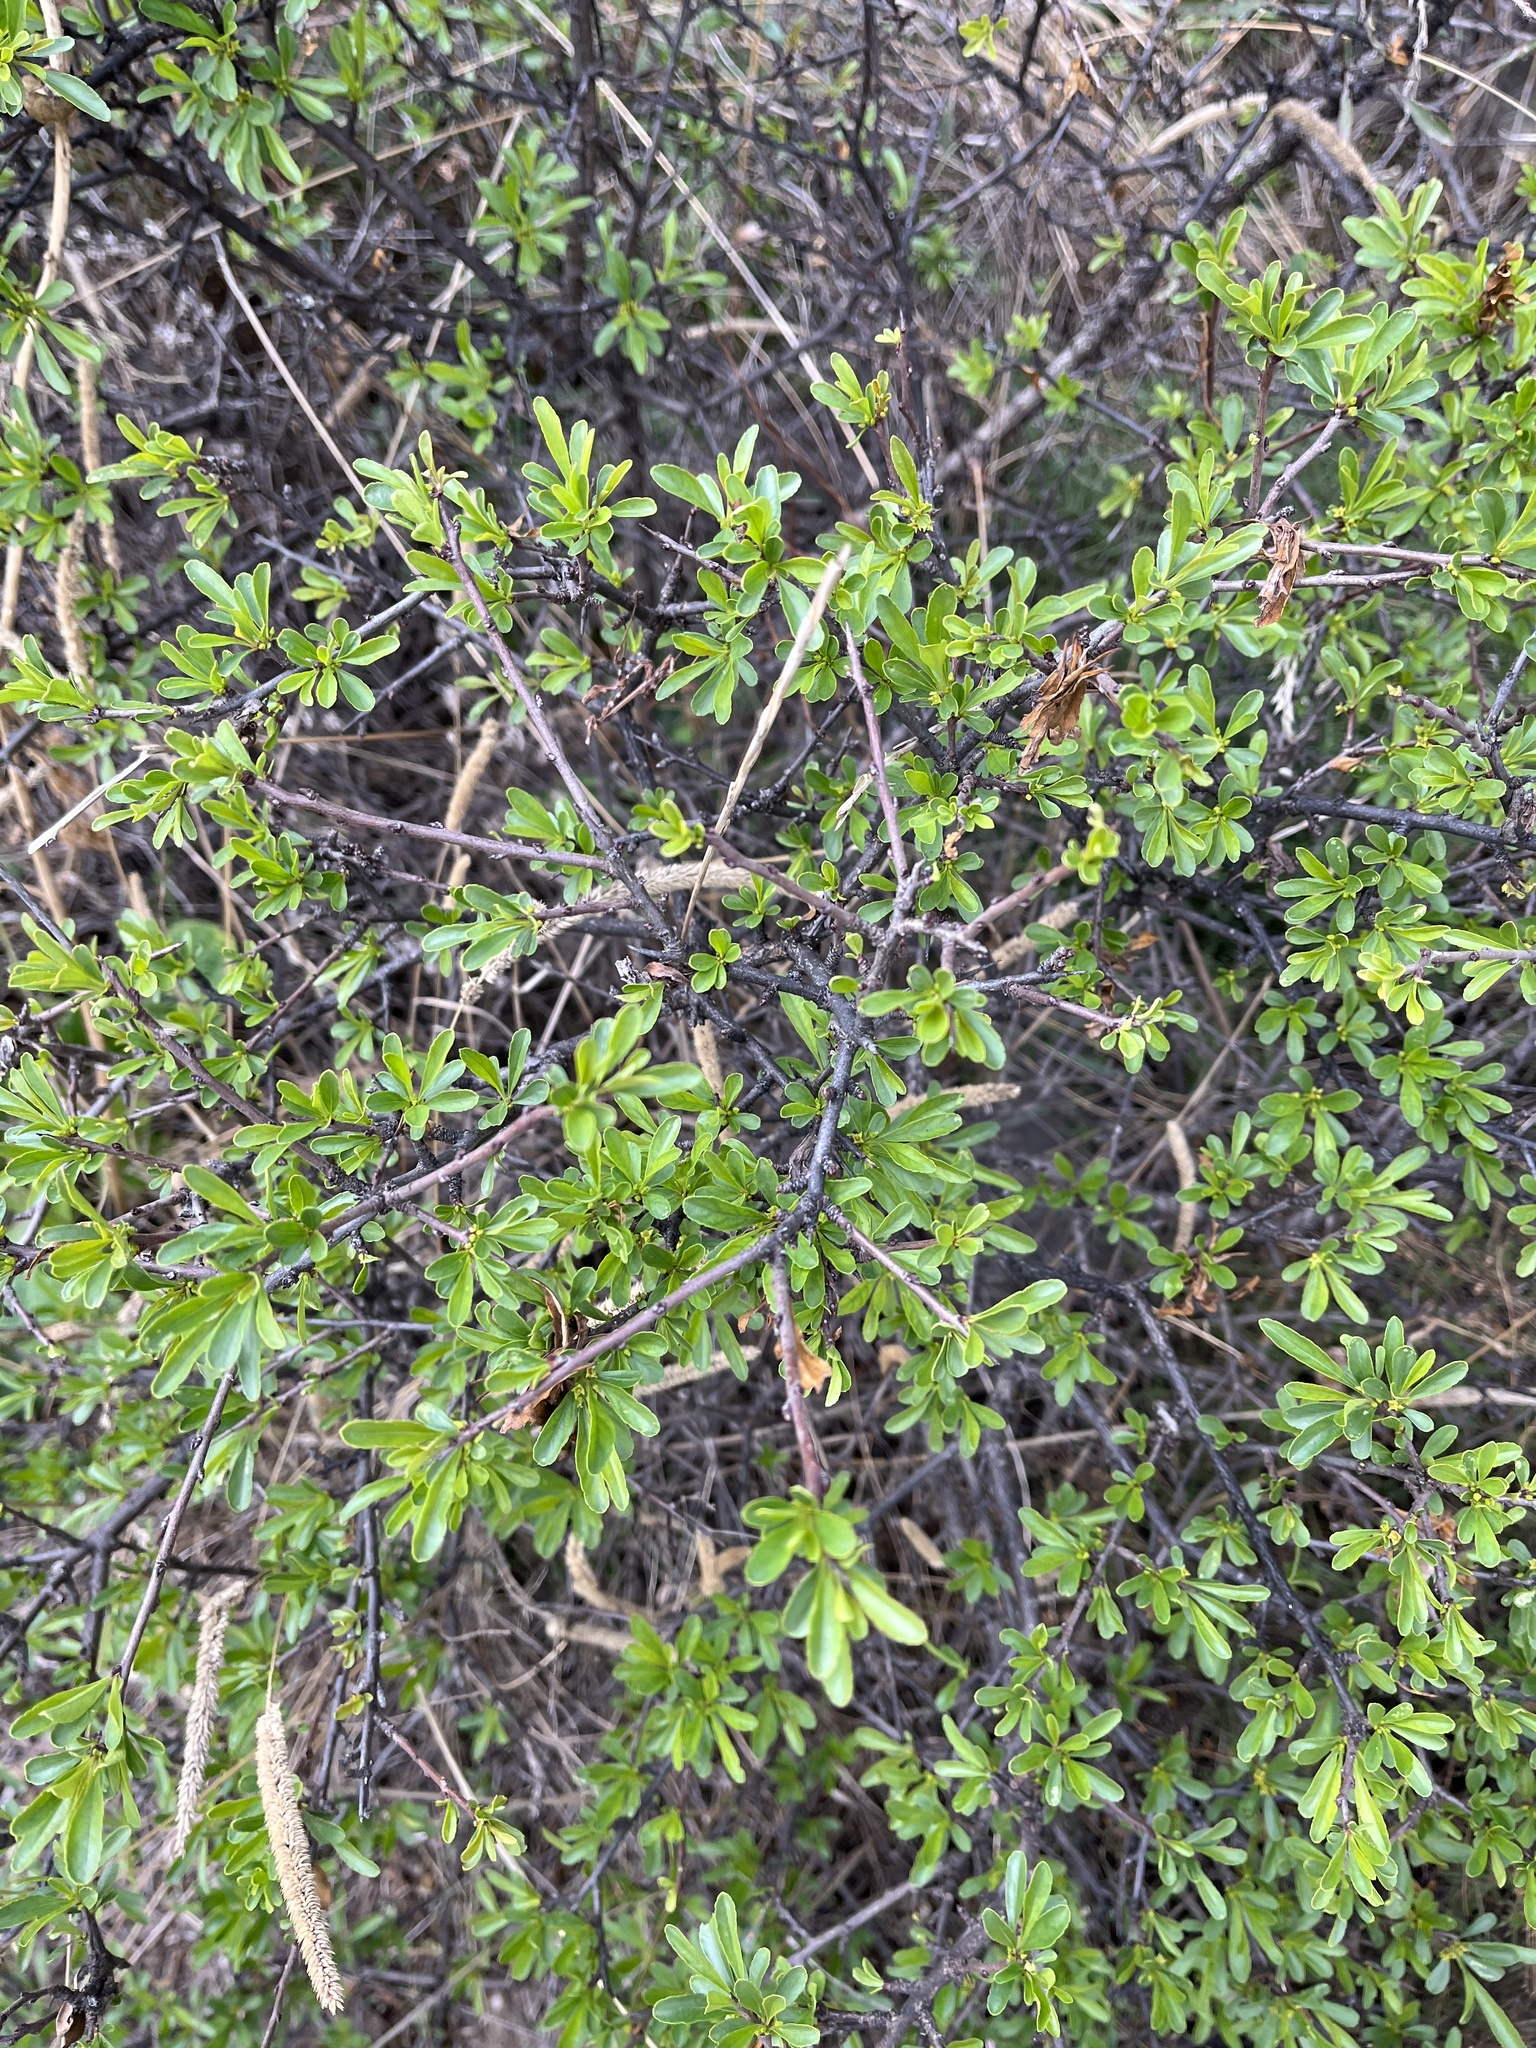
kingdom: Plantae
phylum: Tracheophyta
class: Magnoliopsida
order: Lamiales
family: Oleaceae
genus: Chrysojasminum
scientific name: Chrysojasminum fruticans
